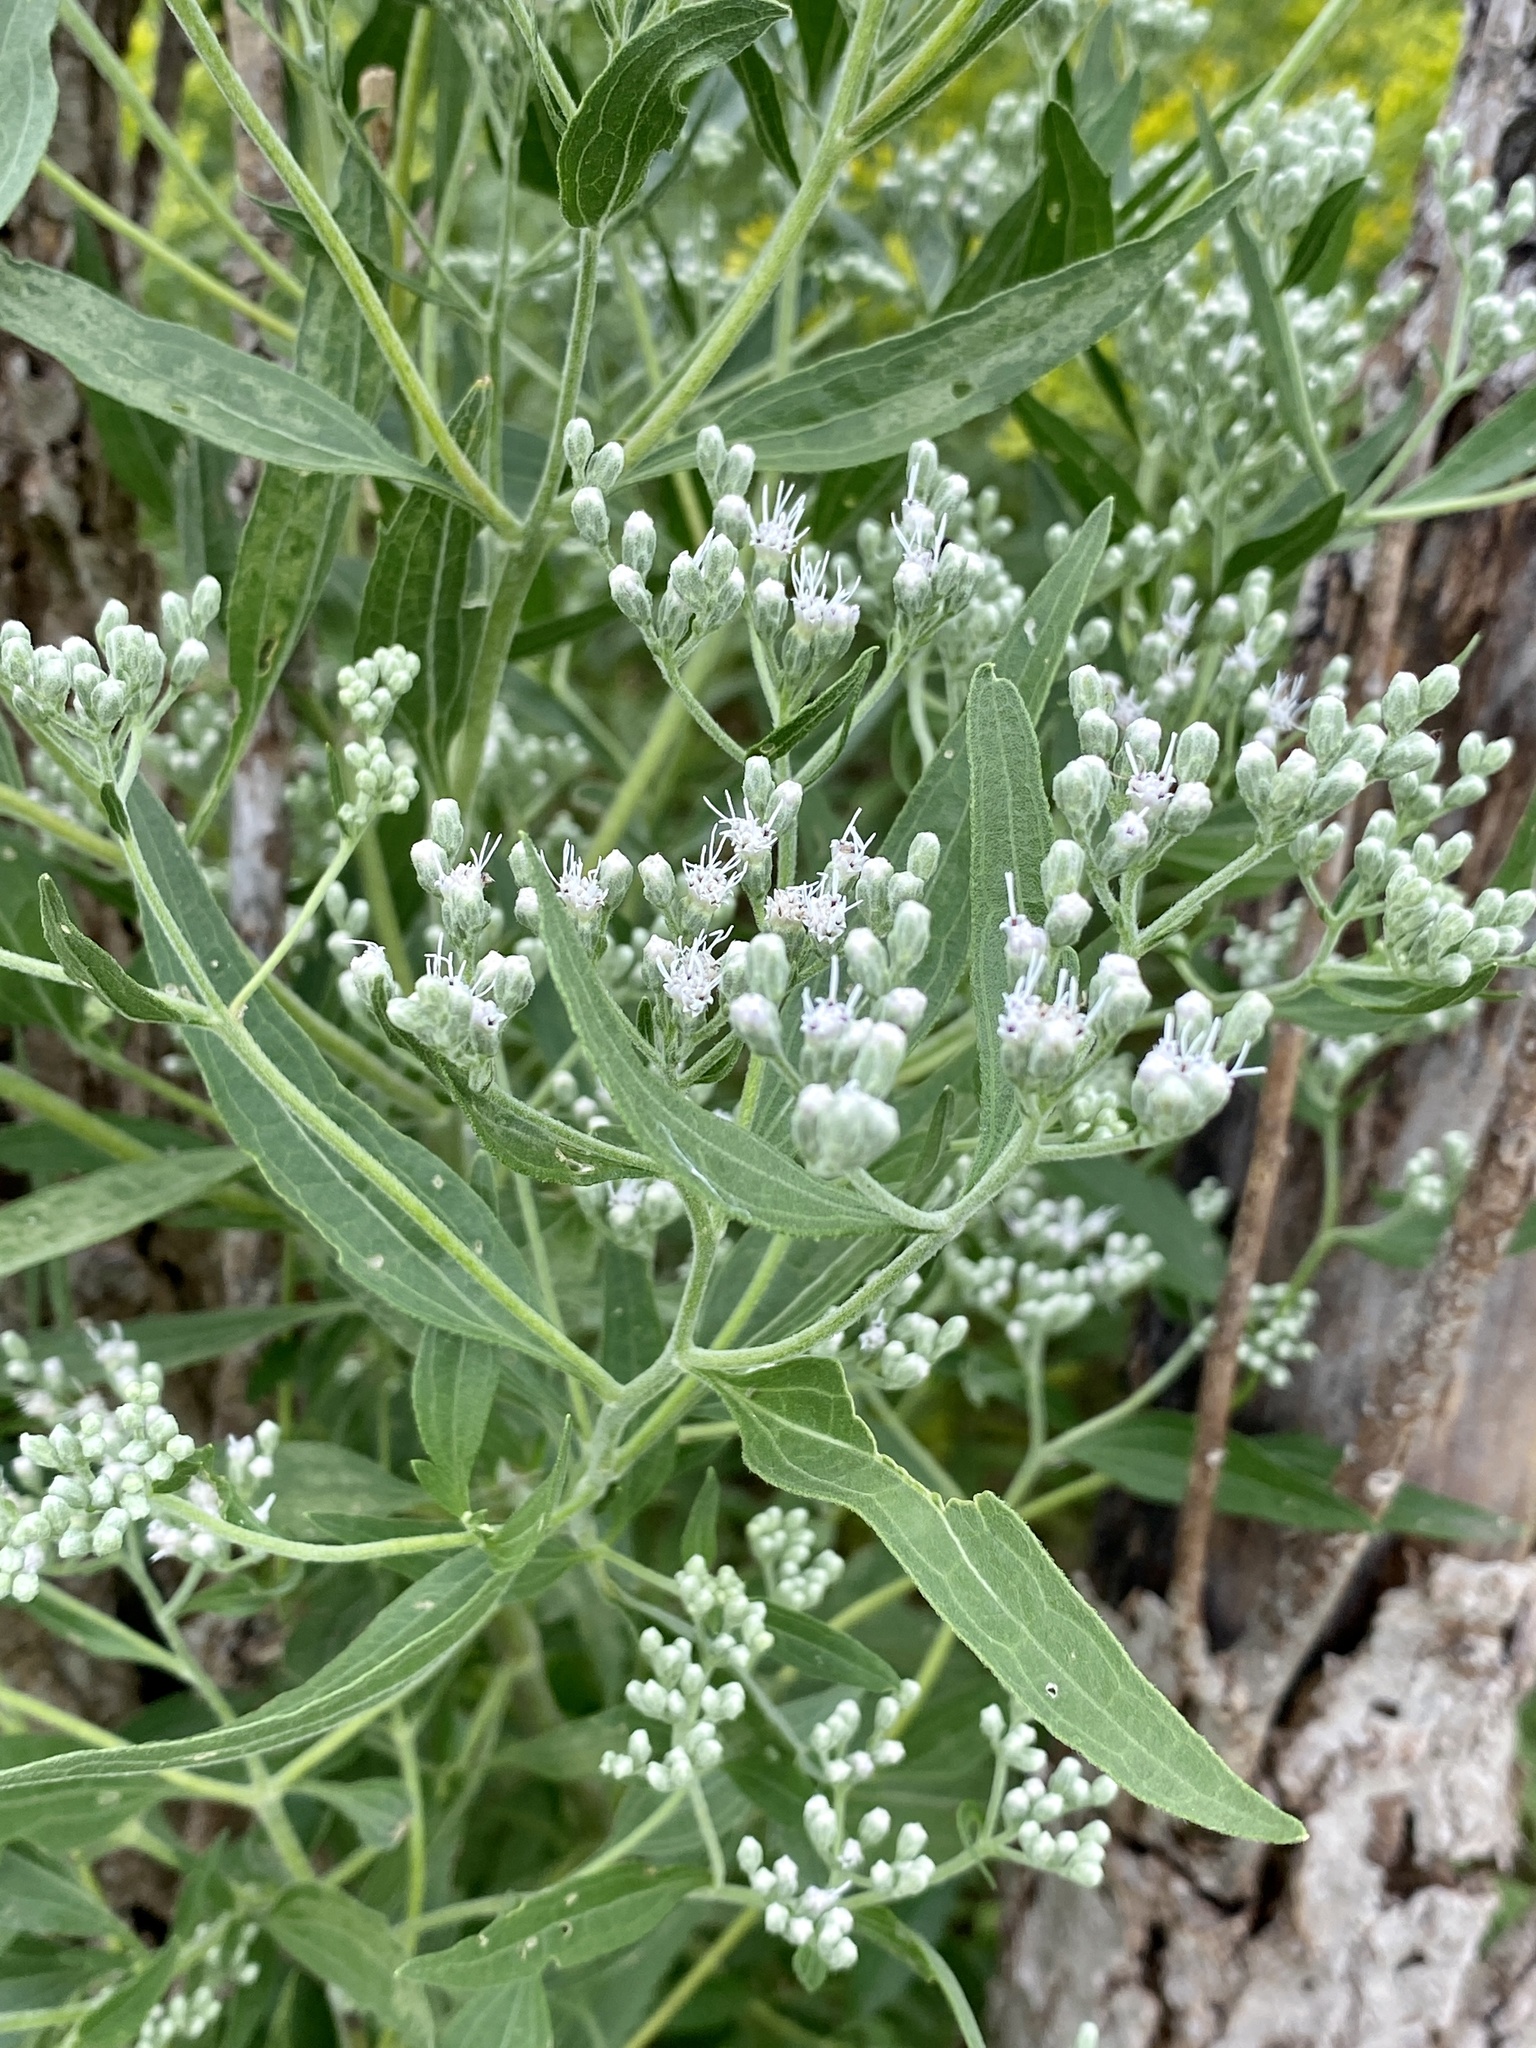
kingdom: Plantae
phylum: Tracheophyta
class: Magnoliopsida
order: Asterales
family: Asteraceae
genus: Eupatorium
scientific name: Eupatorium serotinum
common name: Late boneset
